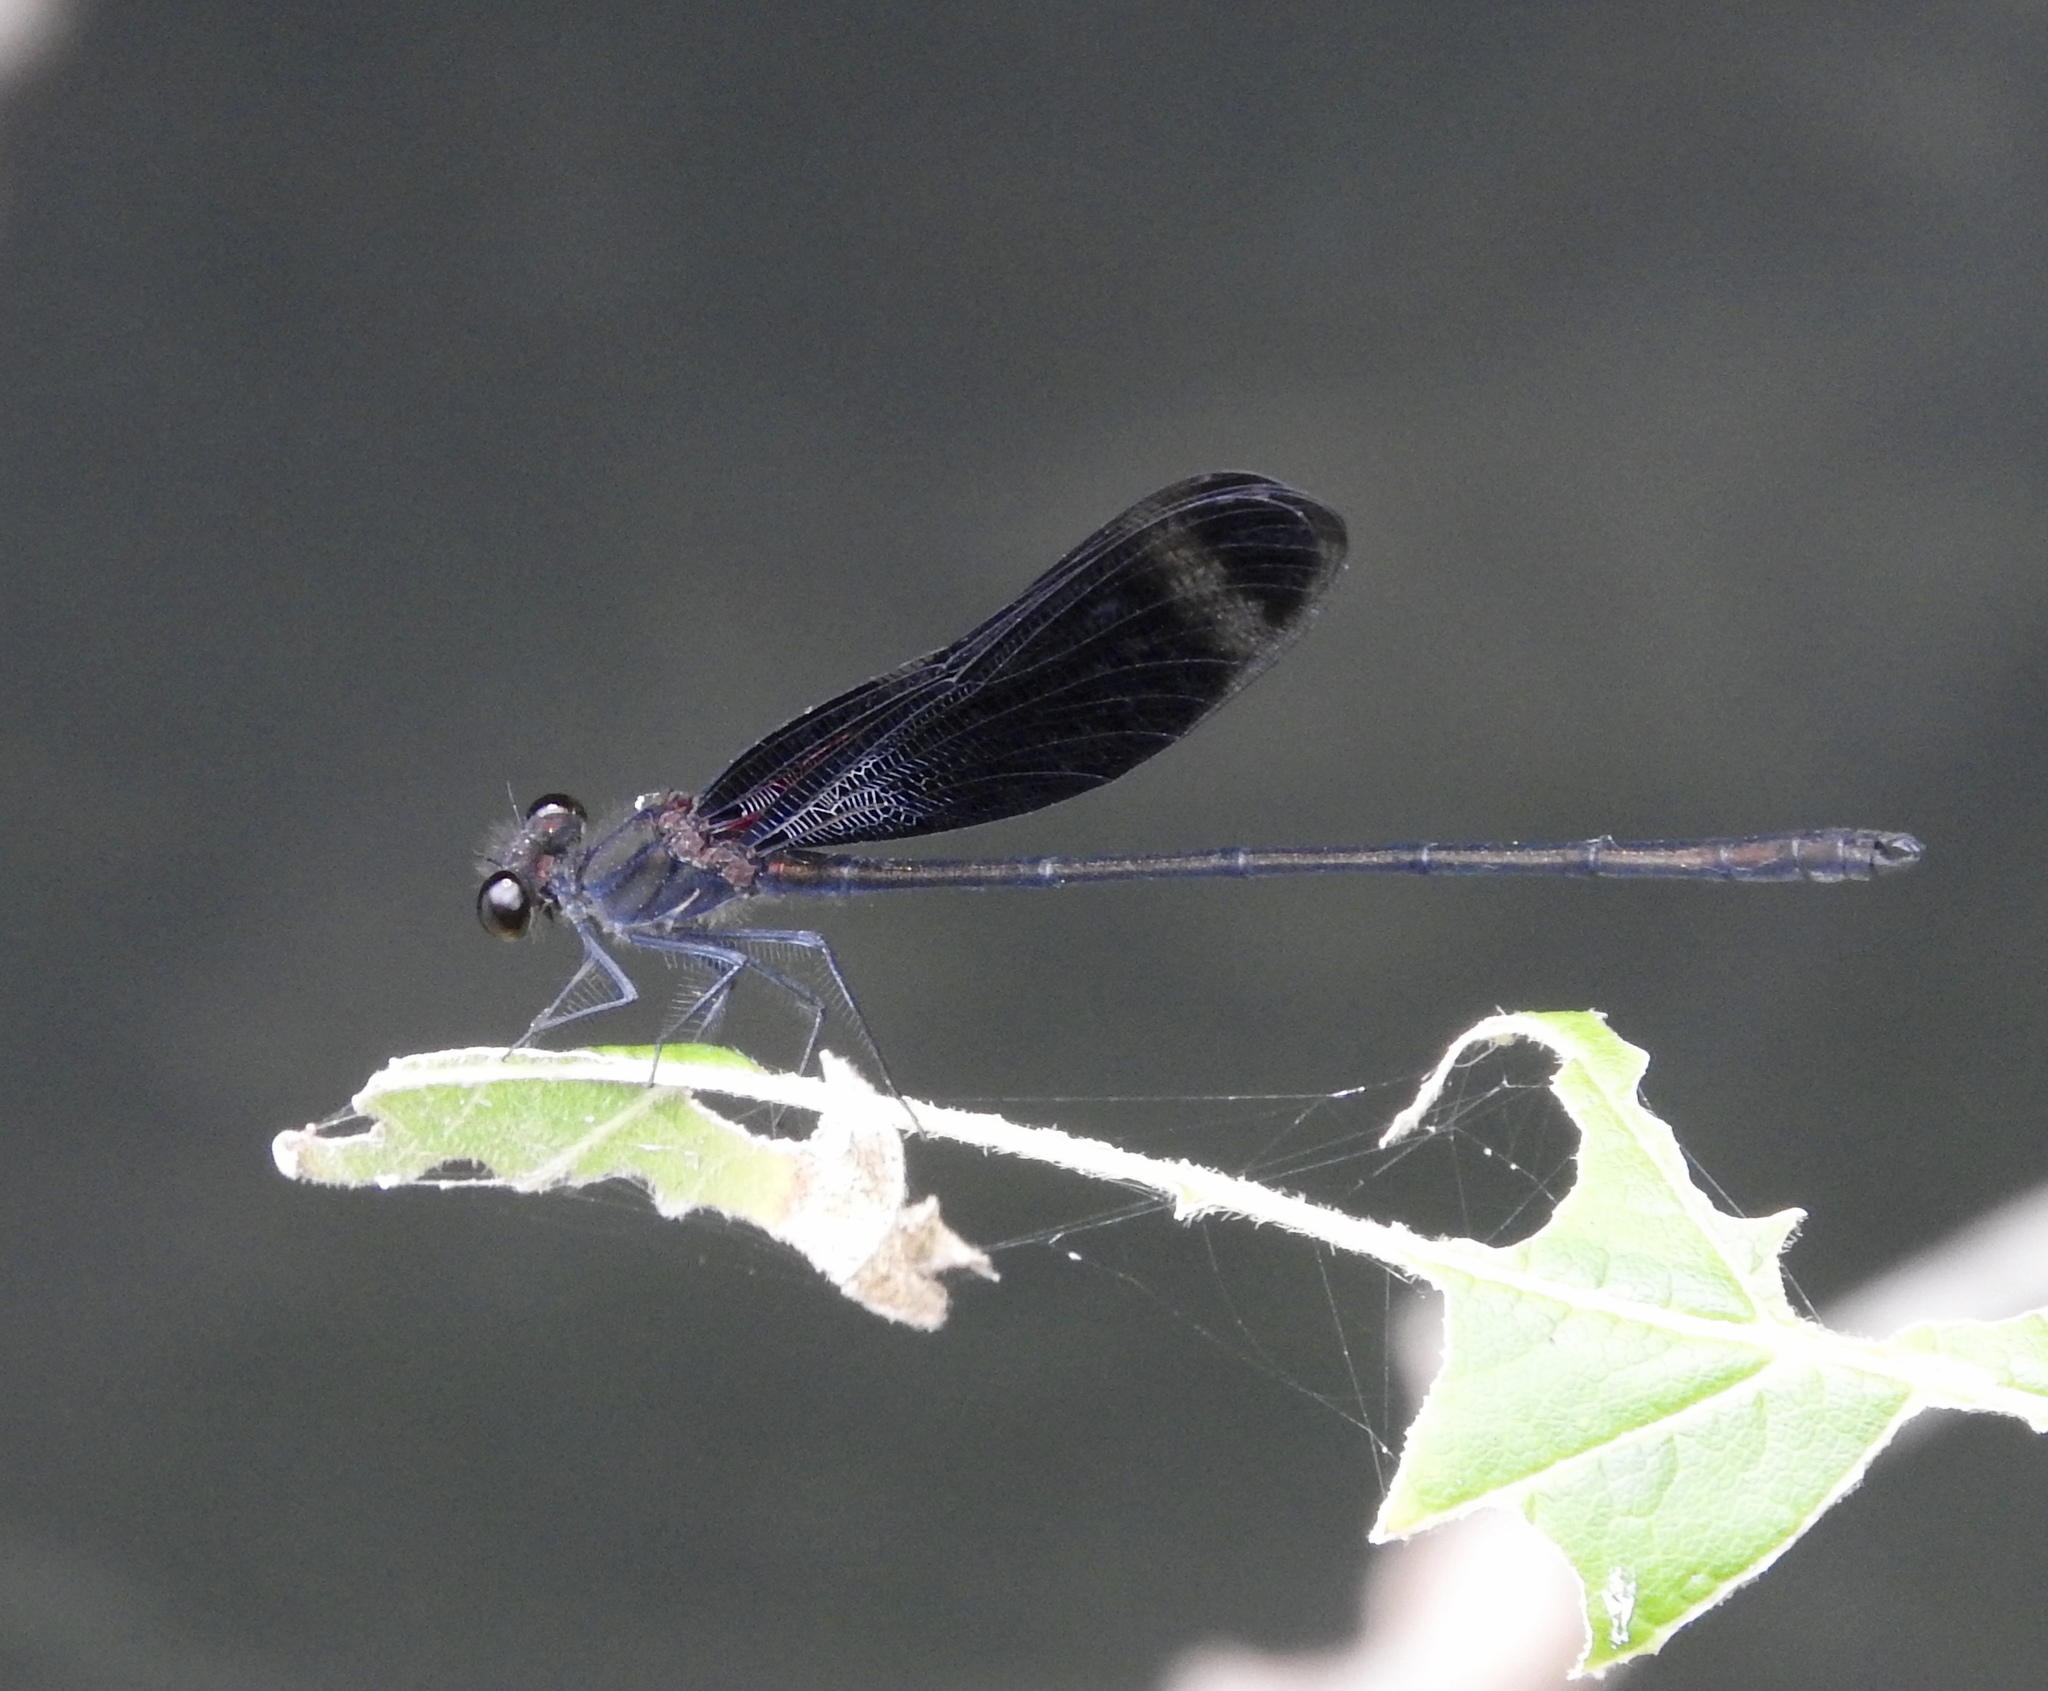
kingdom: Animalia
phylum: Arthropoda
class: Insecta
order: Odonata
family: Calopterygidae
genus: Hetaerina
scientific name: Hetaerina titia
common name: Smoky rubyspot
